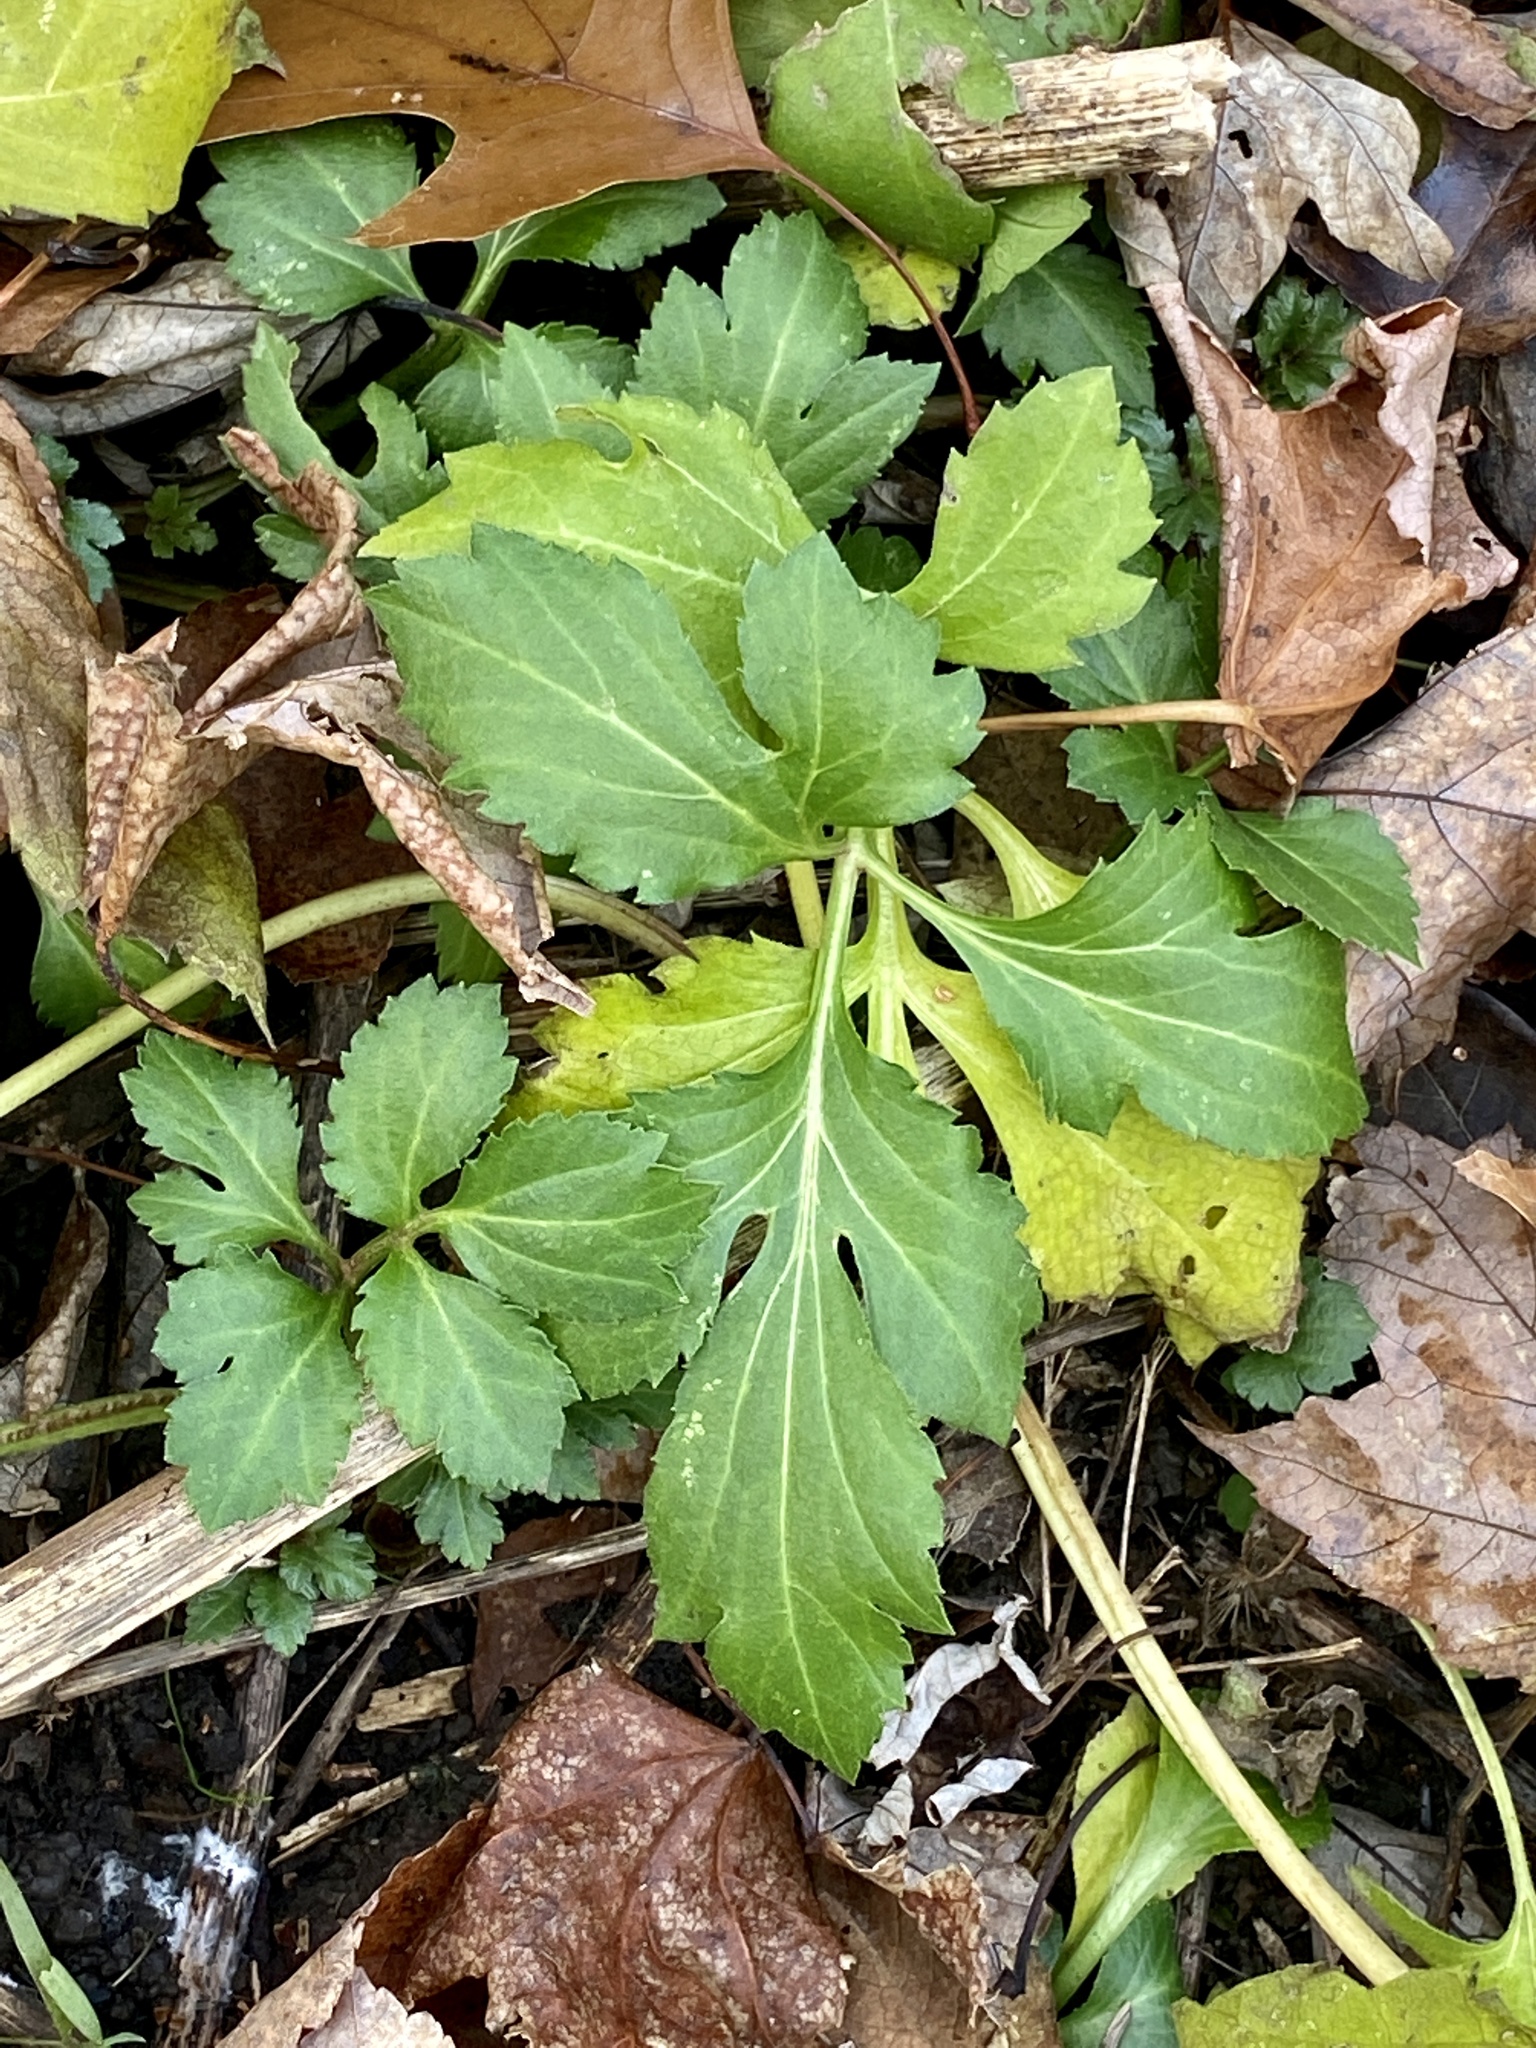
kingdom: Plantae
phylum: Tracheophyta
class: Magnoliopsida
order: Asterales
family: Asteraceae
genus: Rudbeckia
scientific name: Rudbeckia laciniata
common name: Coneflower
